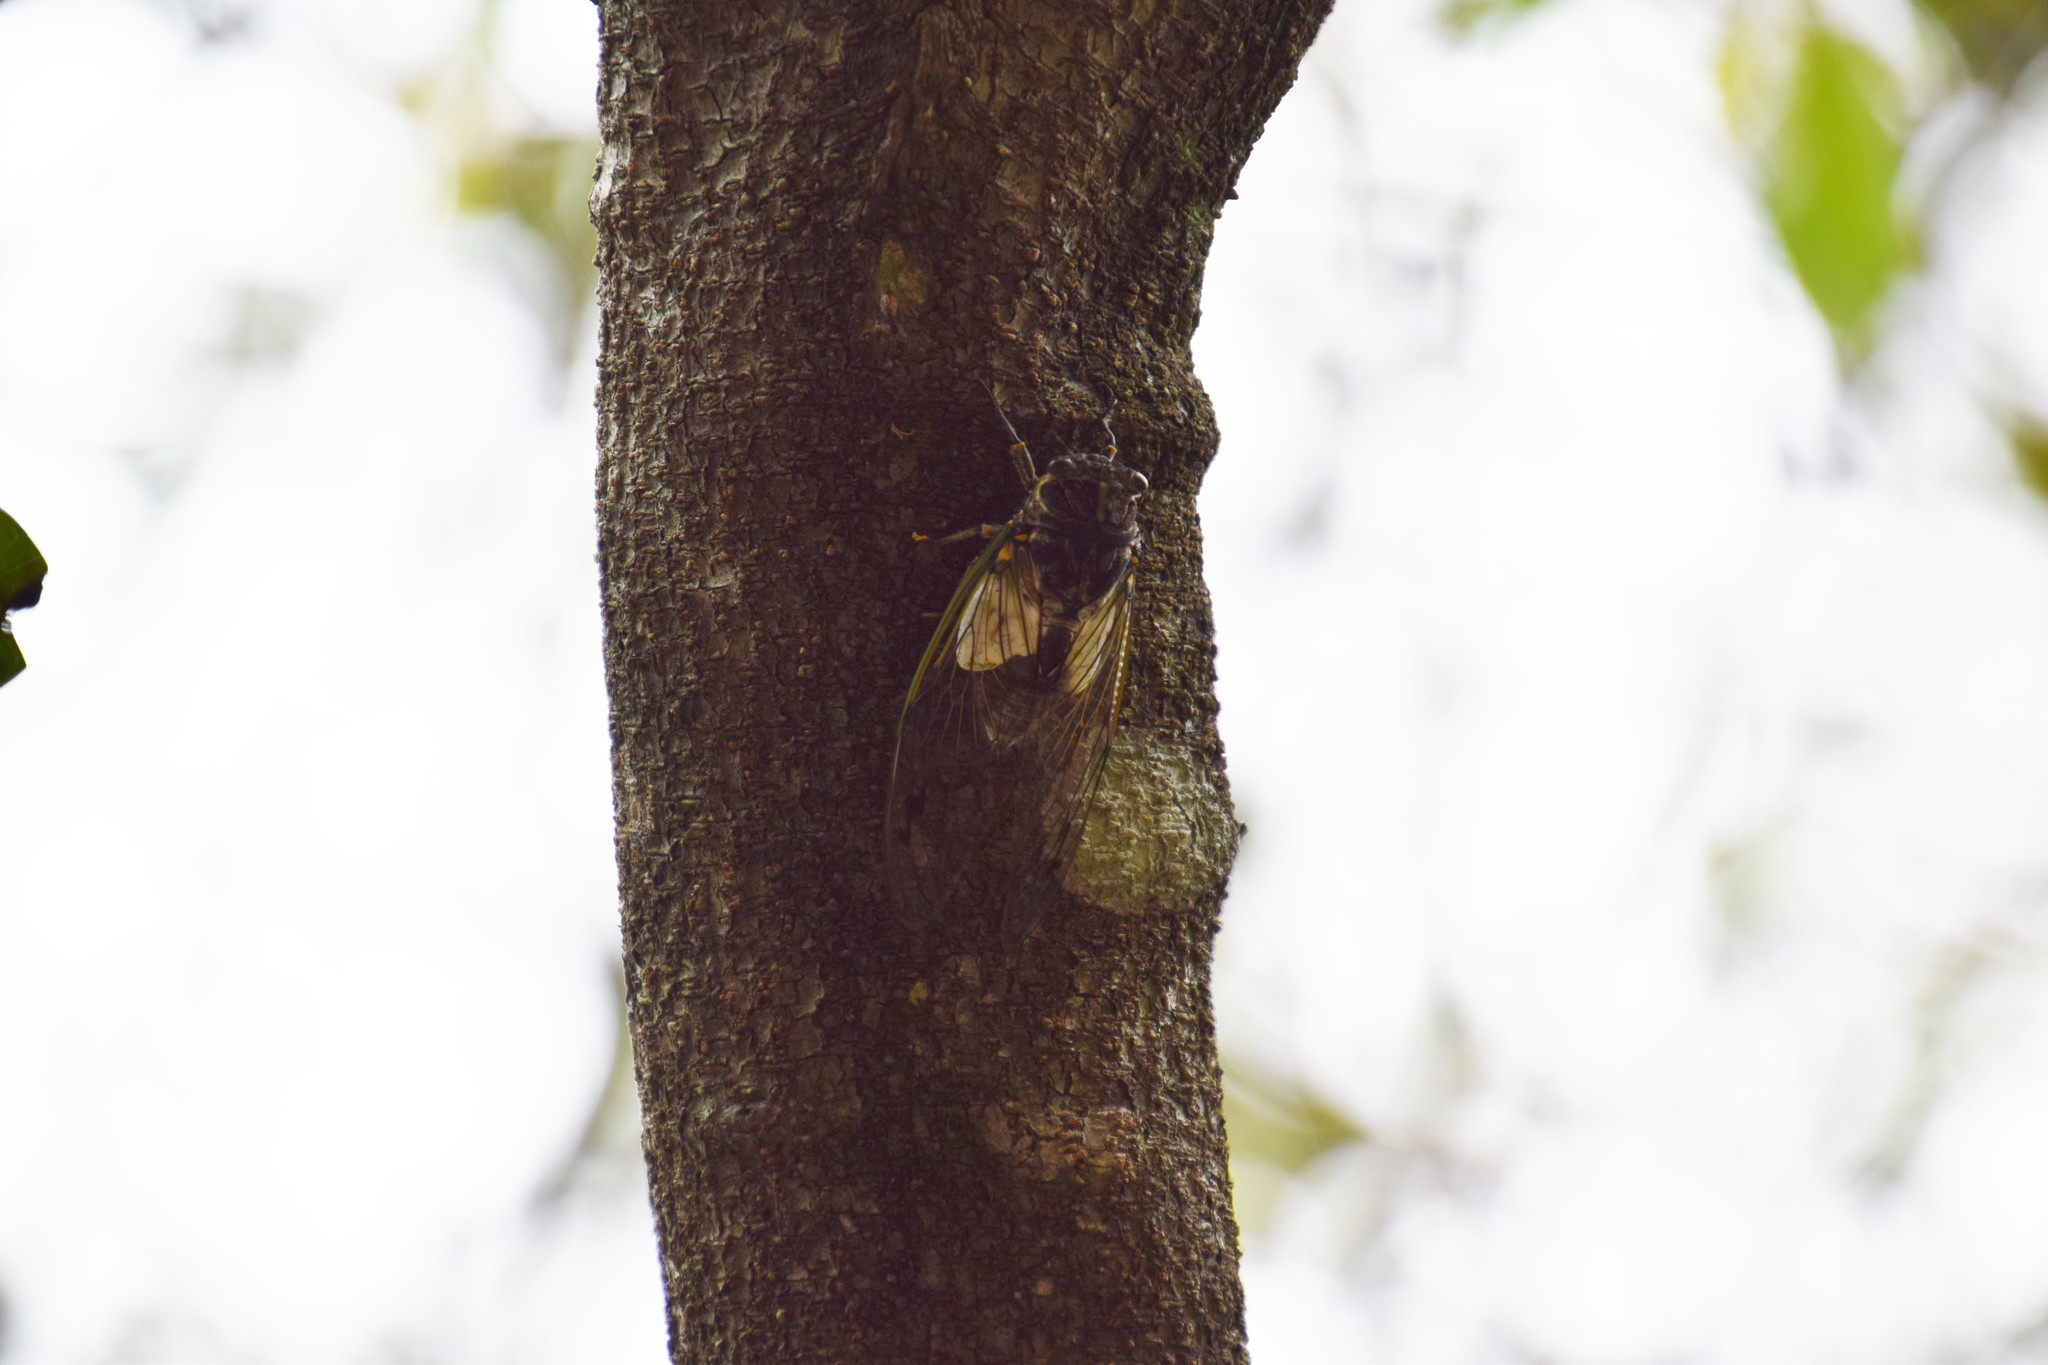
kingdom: Animalia
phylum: Arthropoda
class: Insecta
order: Hemiptera
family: Cicadidae
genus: Arunta
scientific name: Arunta perulata
